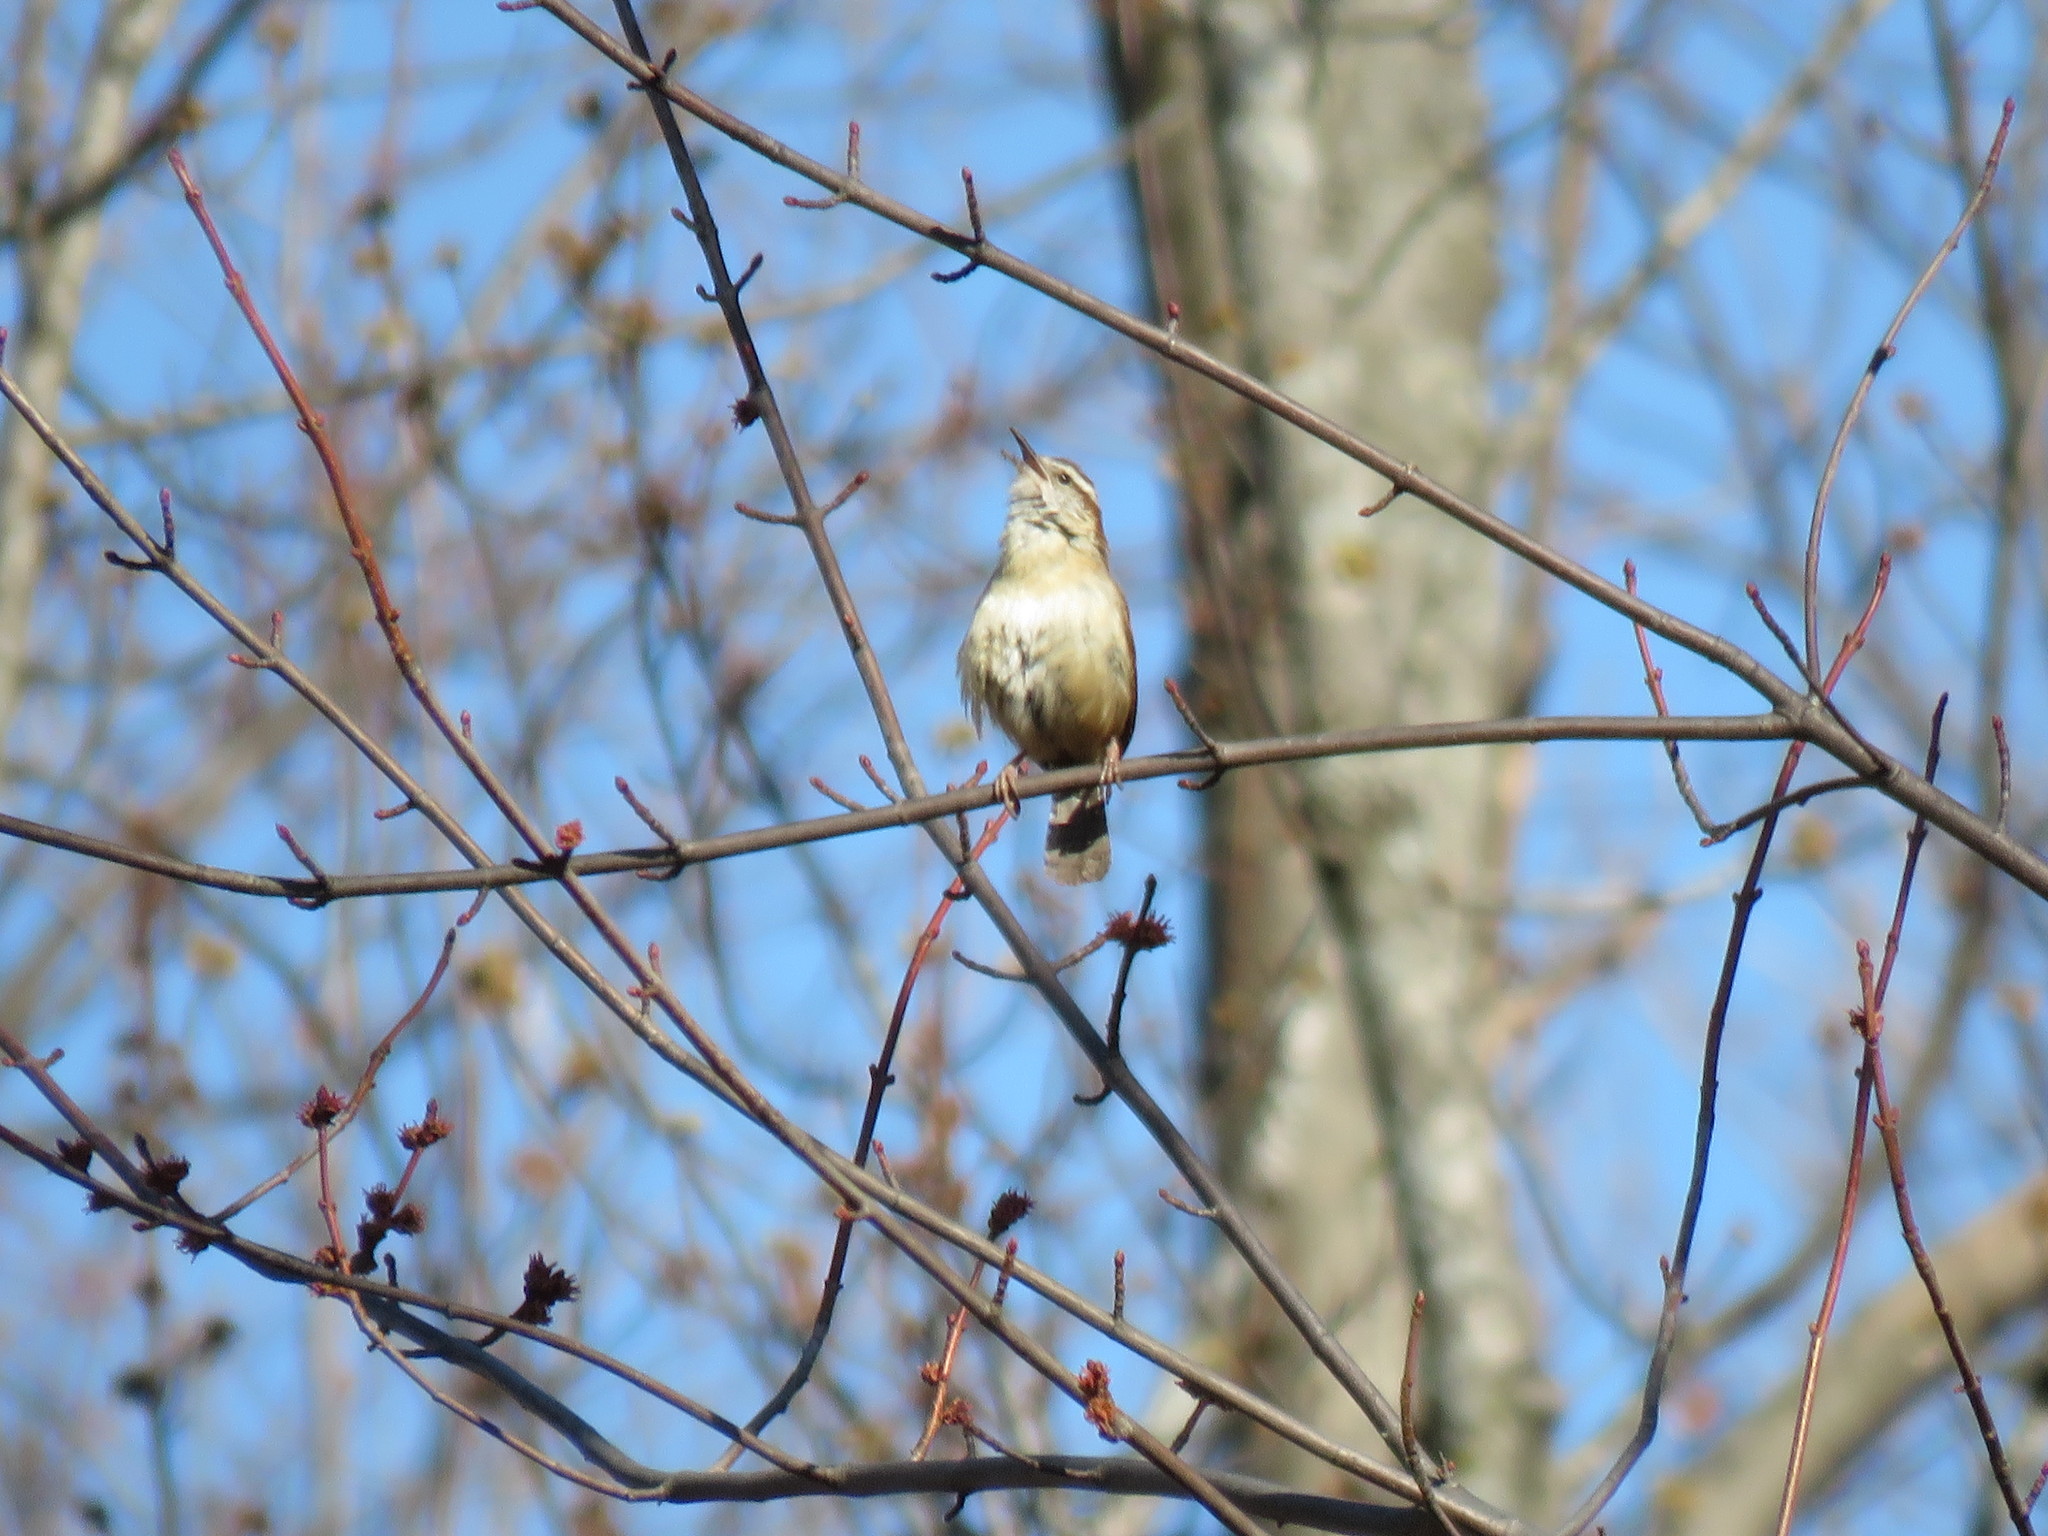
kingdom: Animalia
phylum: Chordata
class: Aves
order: Passeriformes
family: Troglodytidae
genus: Thryothorus
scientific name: Thryothorus ludovicianus
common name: Carolina wren
